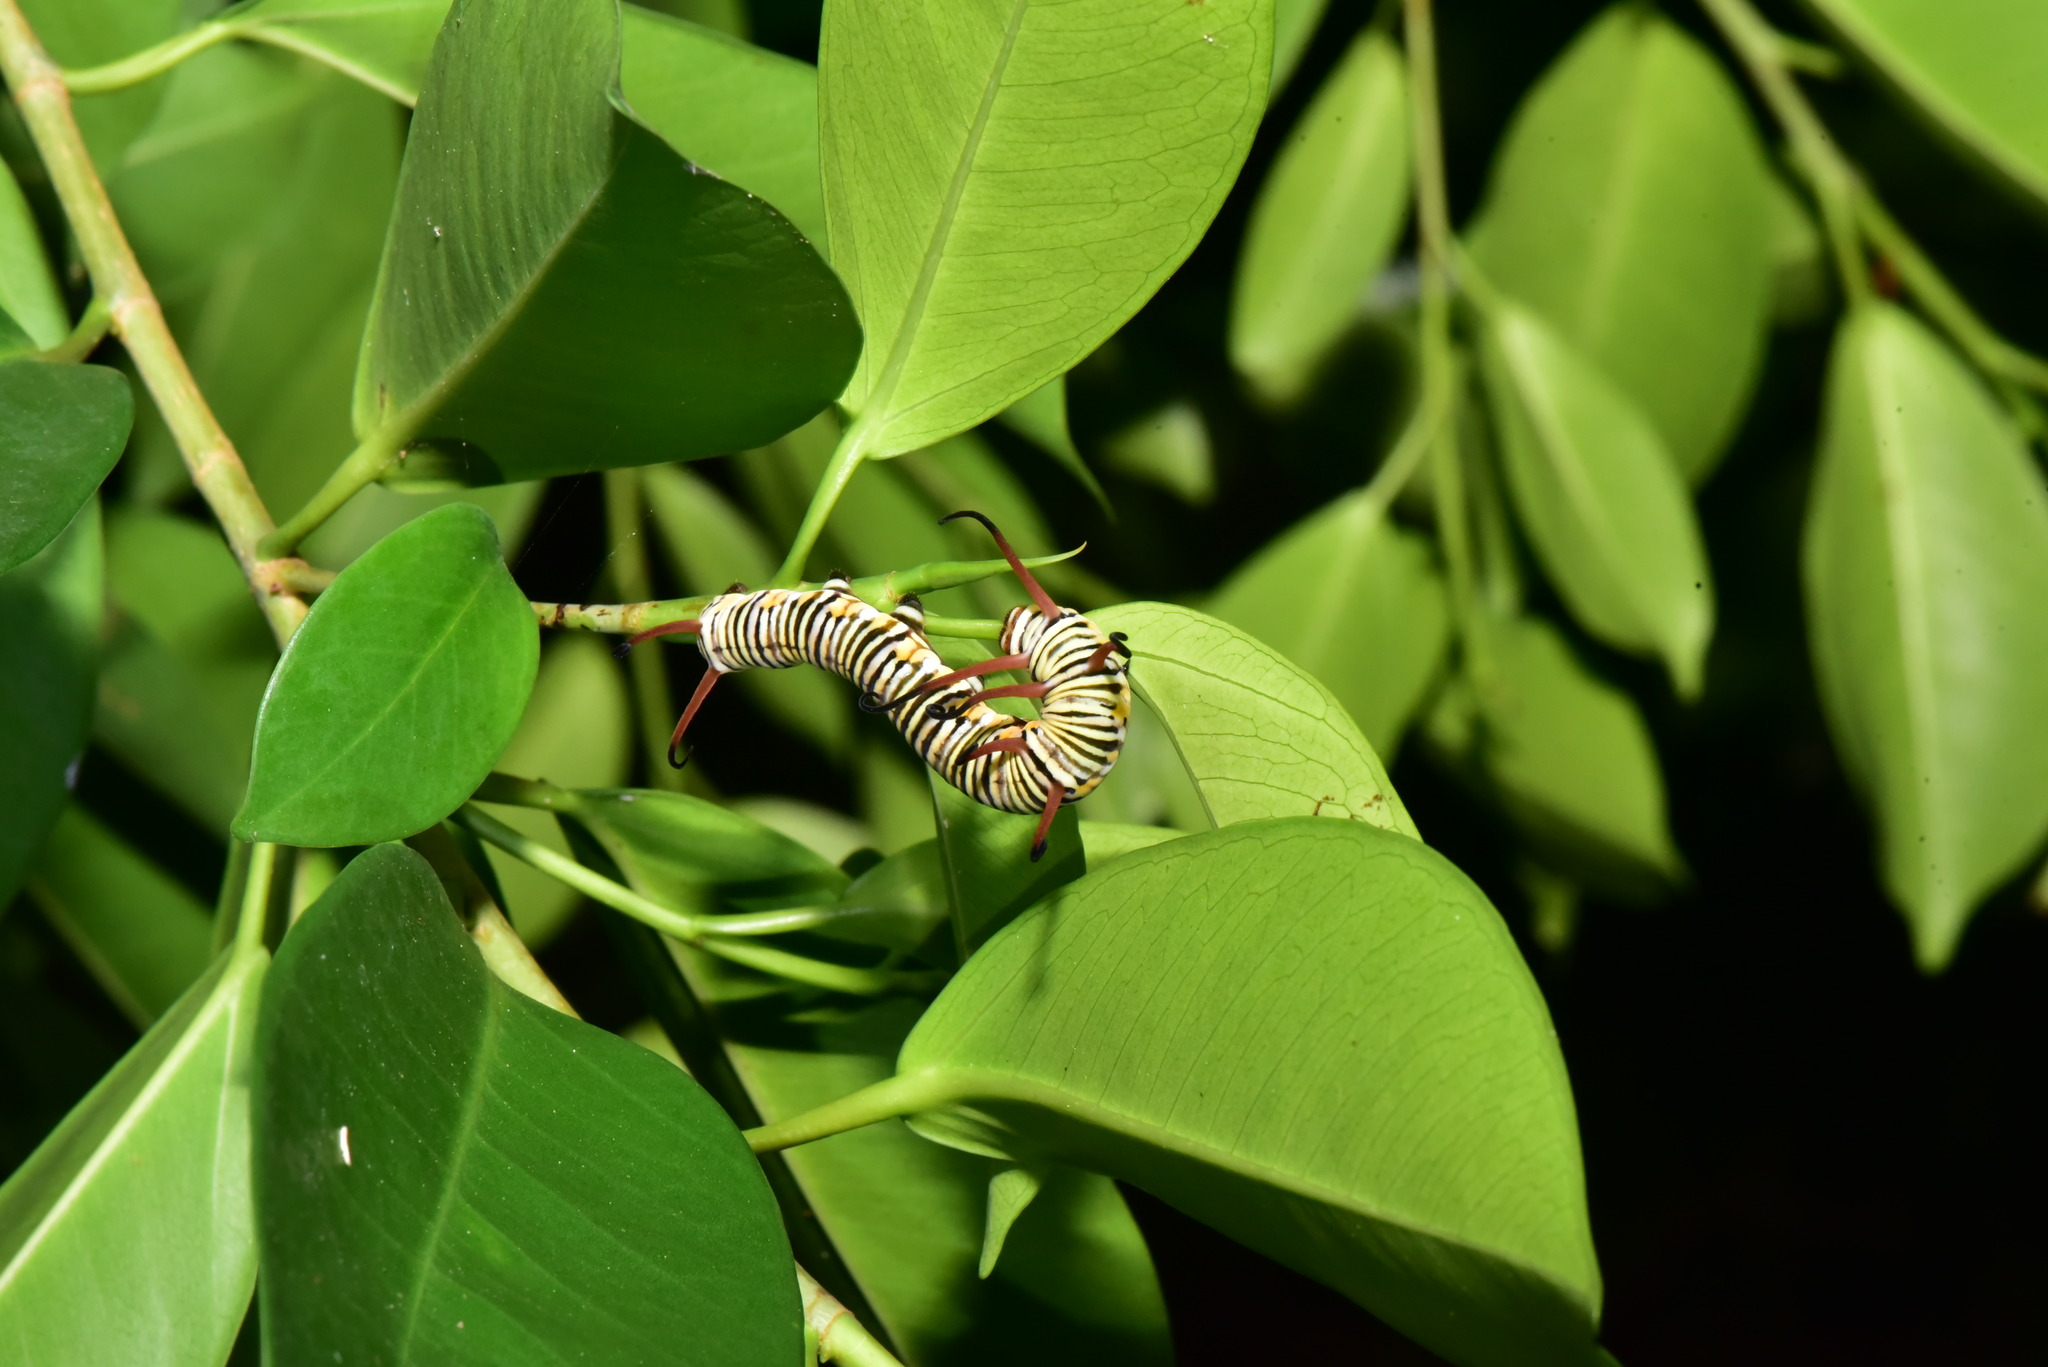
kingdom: Animalia
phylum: Arthropoda
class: Insecta
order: Lepidoptera
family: Nymphalidae
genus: Euploea
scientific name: Euploea mulciber
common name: Striped blue crow butterfly
